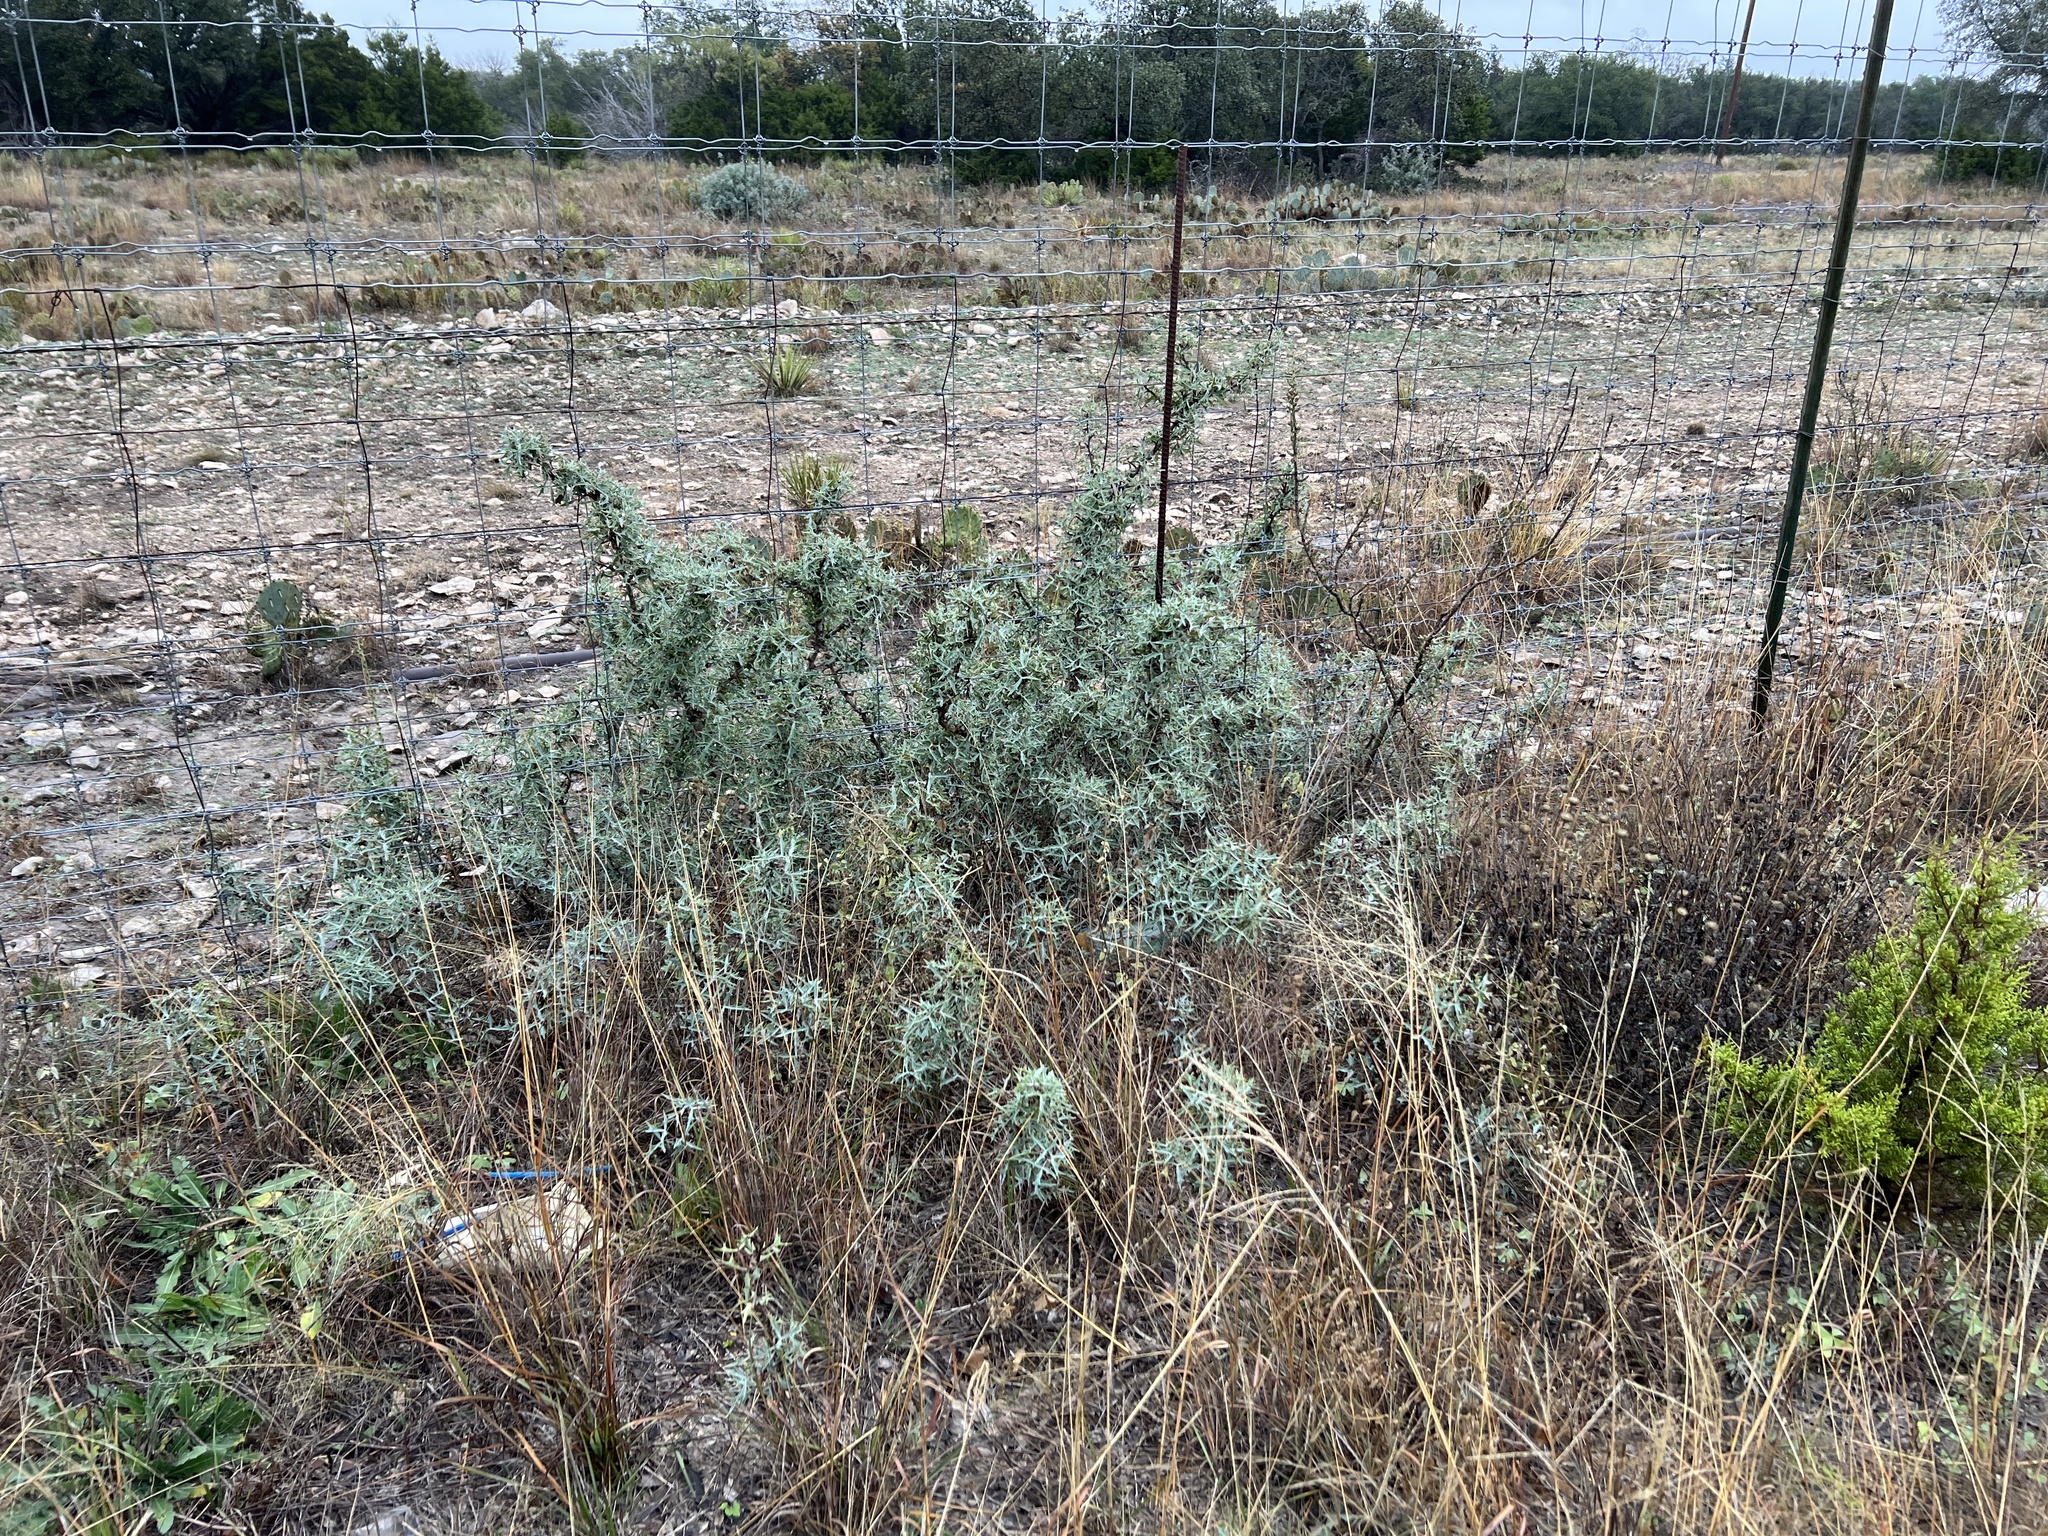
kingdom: Plantae
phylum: Tracheophyta
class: Magnoliopsida
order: Ranunculales
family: Berberidaceae
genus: Alloberberis
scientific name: Alloberberis trifoliolata
